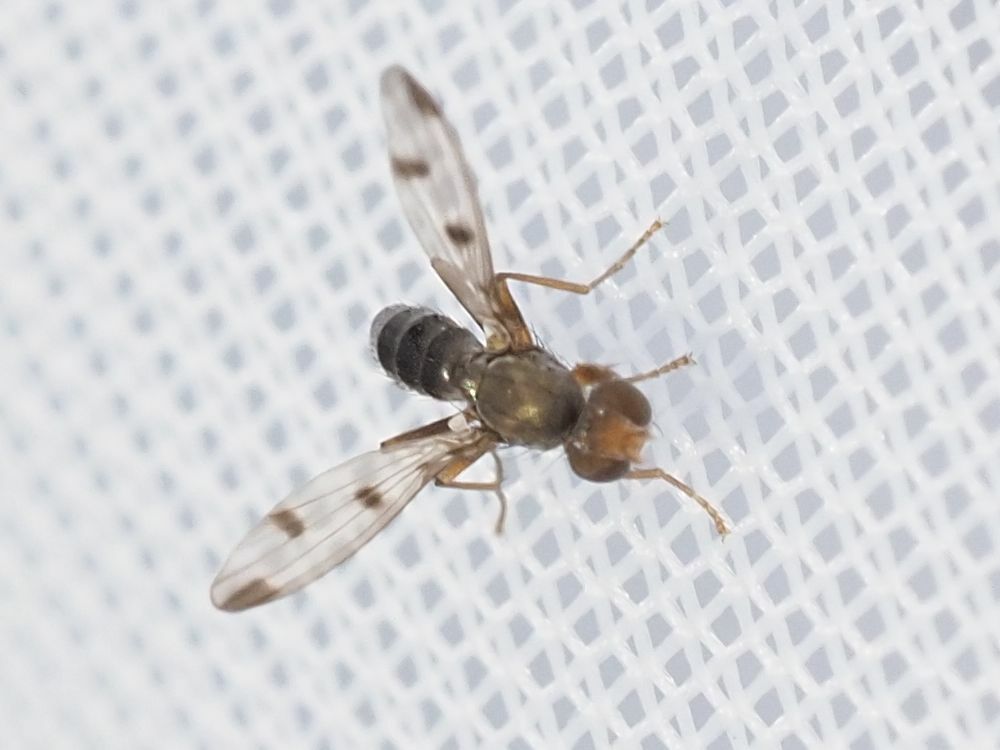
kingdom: Animalia
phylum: Arthropoda
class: Insecta
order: Diptera
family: Opomyzidae
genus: Geomyza
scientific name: Geomyza tripunctata
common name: Cereal fly
